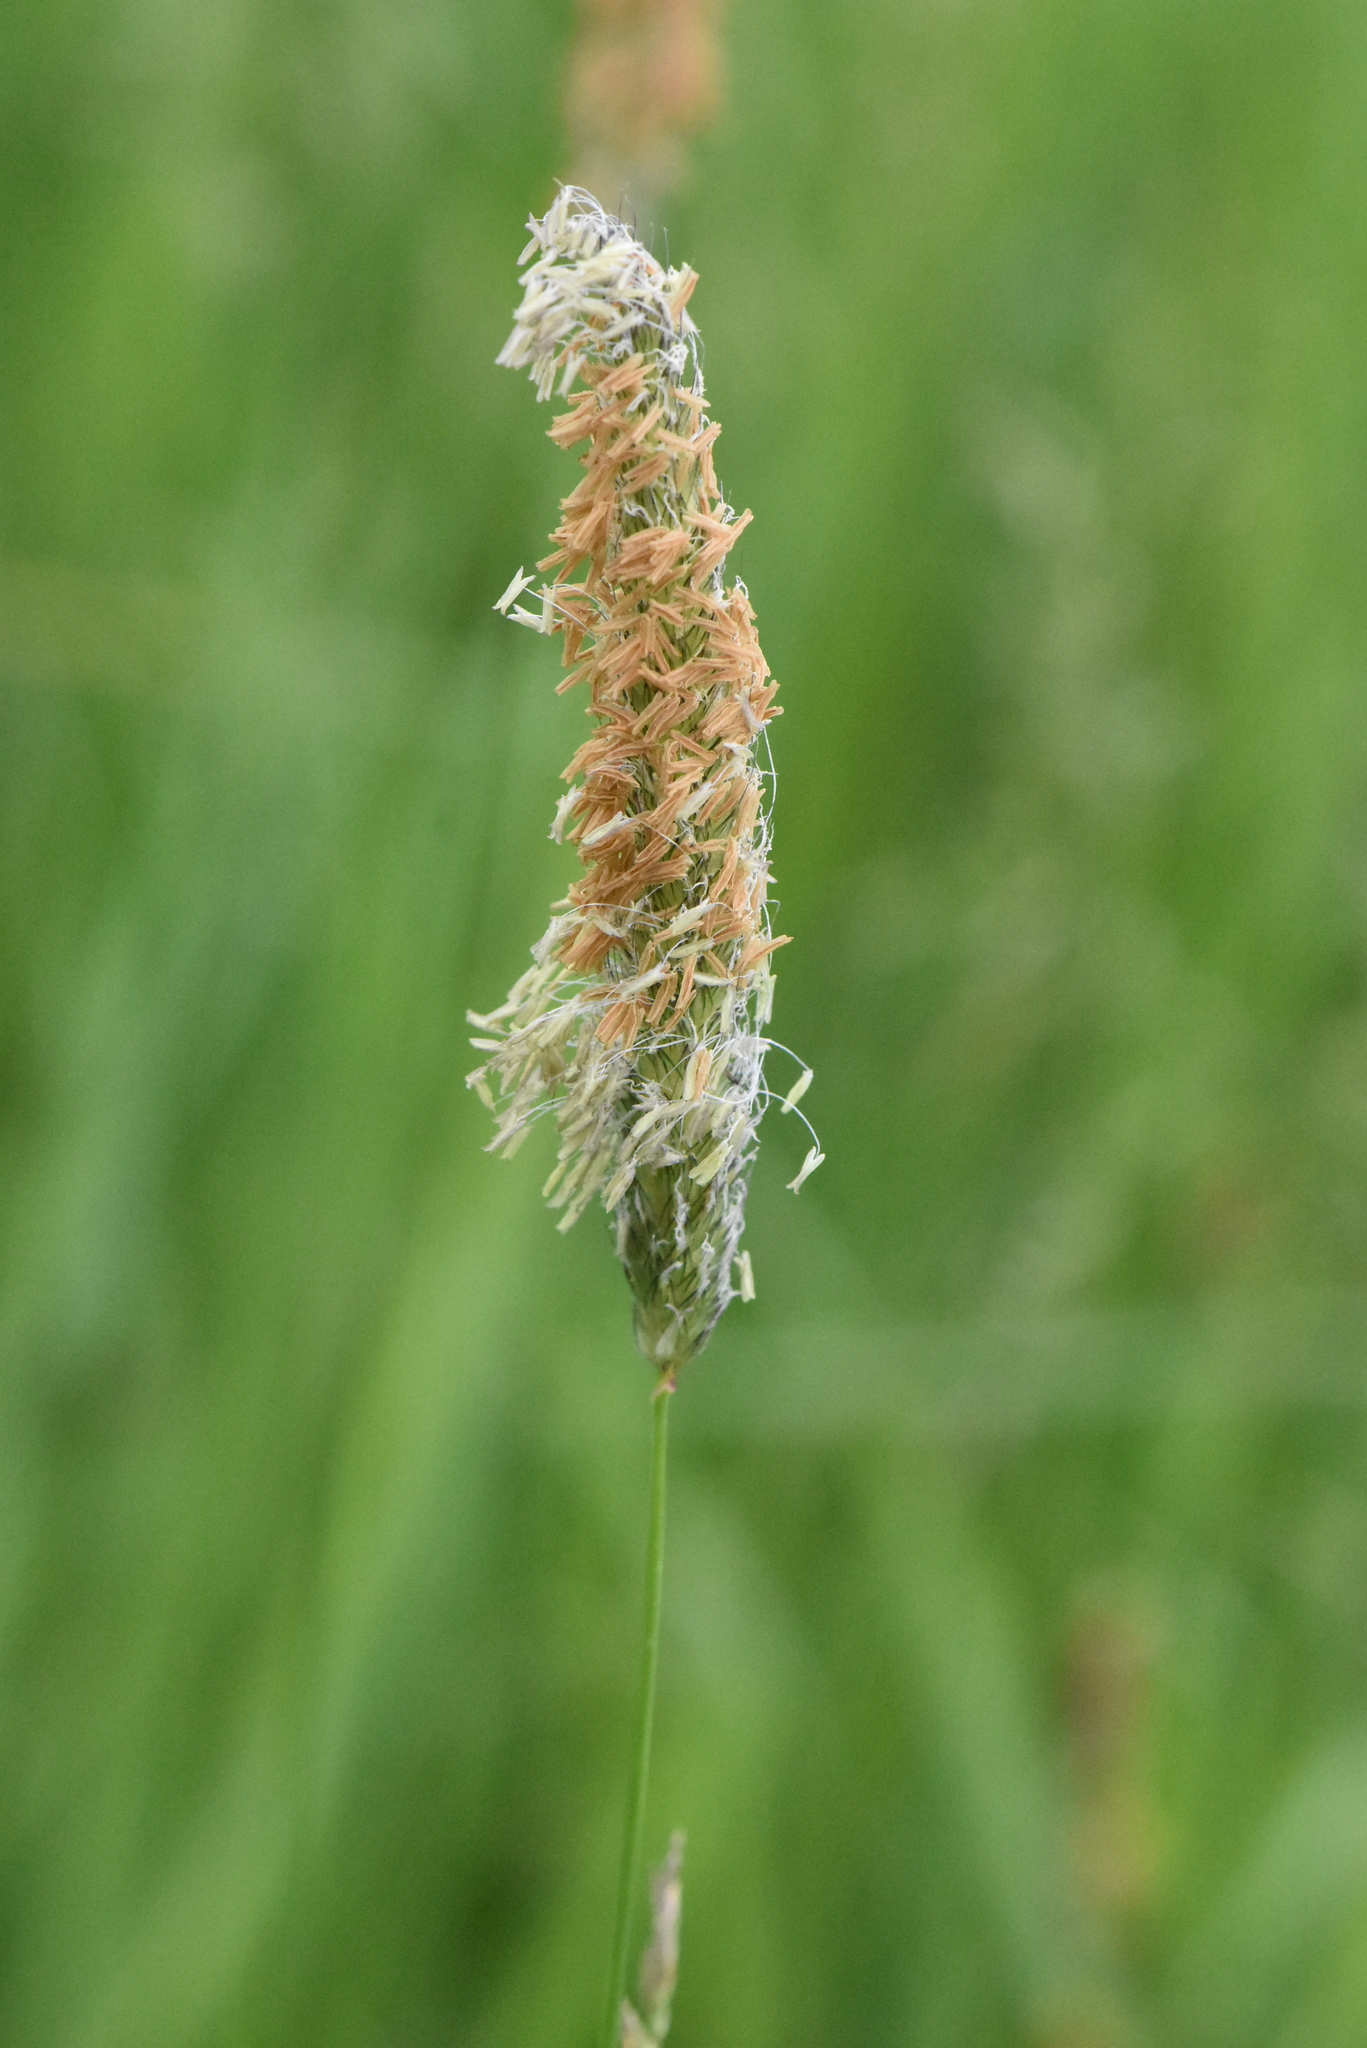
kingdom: Plantae
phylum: Tracheophyta
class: Liliopsida
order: Poales
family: Poaceae
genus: Alopecurus
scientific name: Alopecurus pratensis
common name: Meadow foxtail
